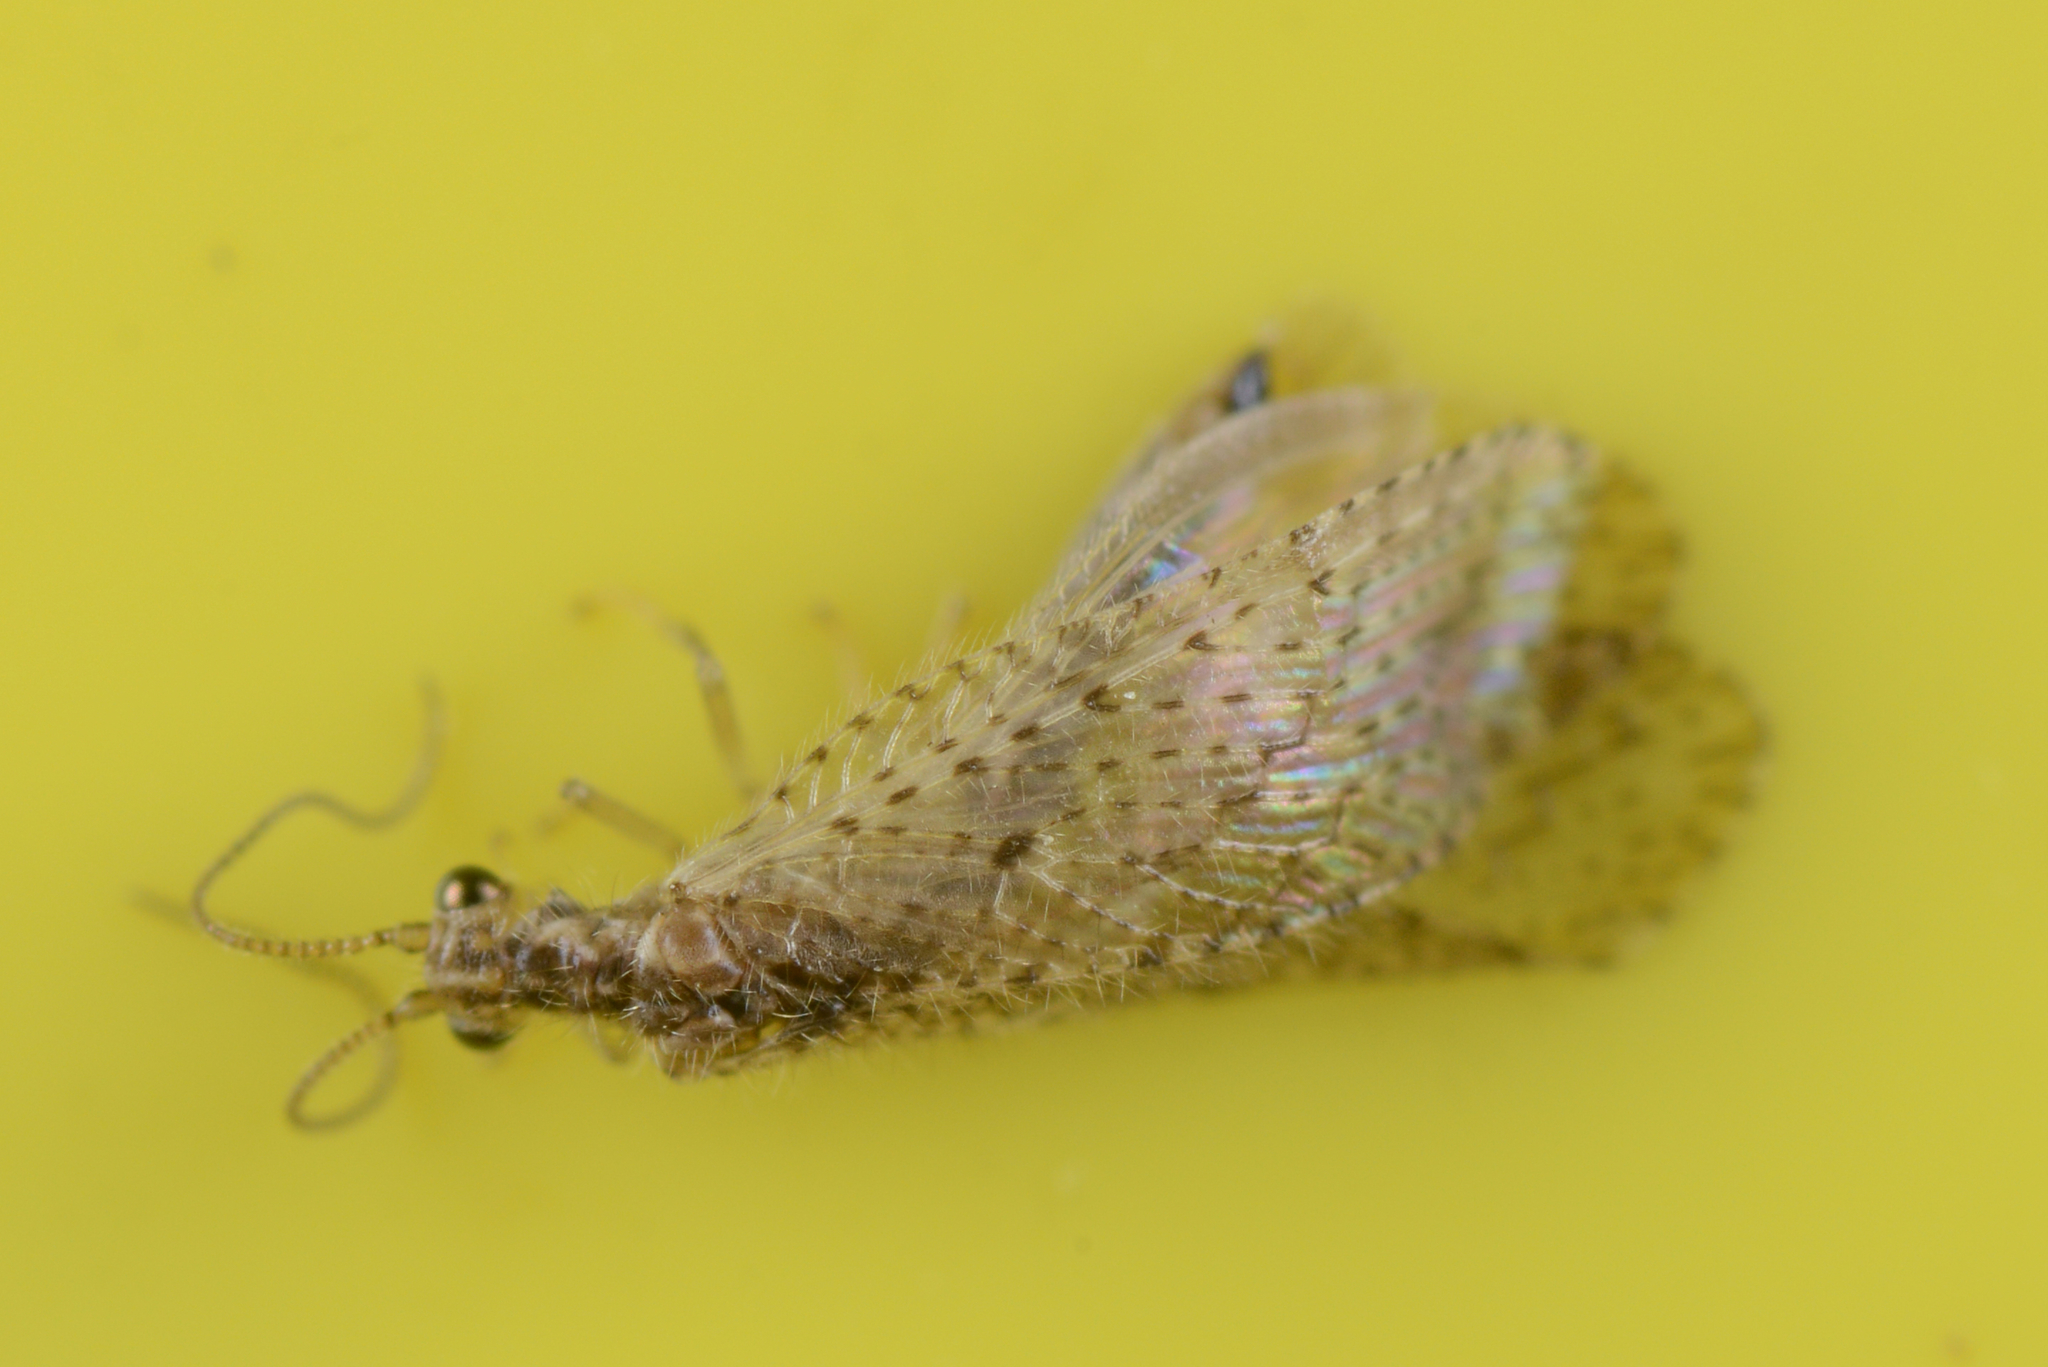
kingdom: Animalia
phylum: Arthropoda
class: Insecta
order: Neuroptera
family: Hemerobiidae
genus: Micromus
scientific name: Micromus tasmaniae
